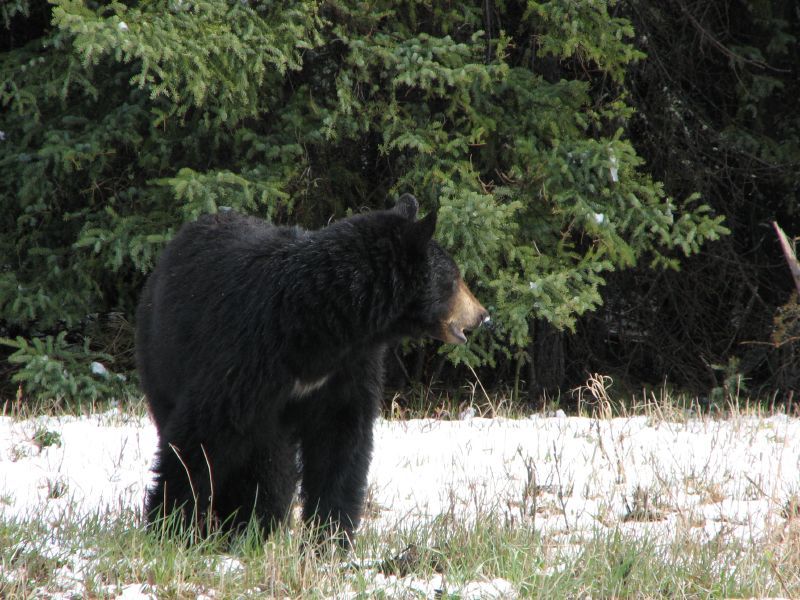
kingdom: Animalia
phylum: Chordata
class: Mammalia
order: Carnivora
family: Ursidae
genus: Ursus
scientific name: Ursus americanus
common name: American black bear
